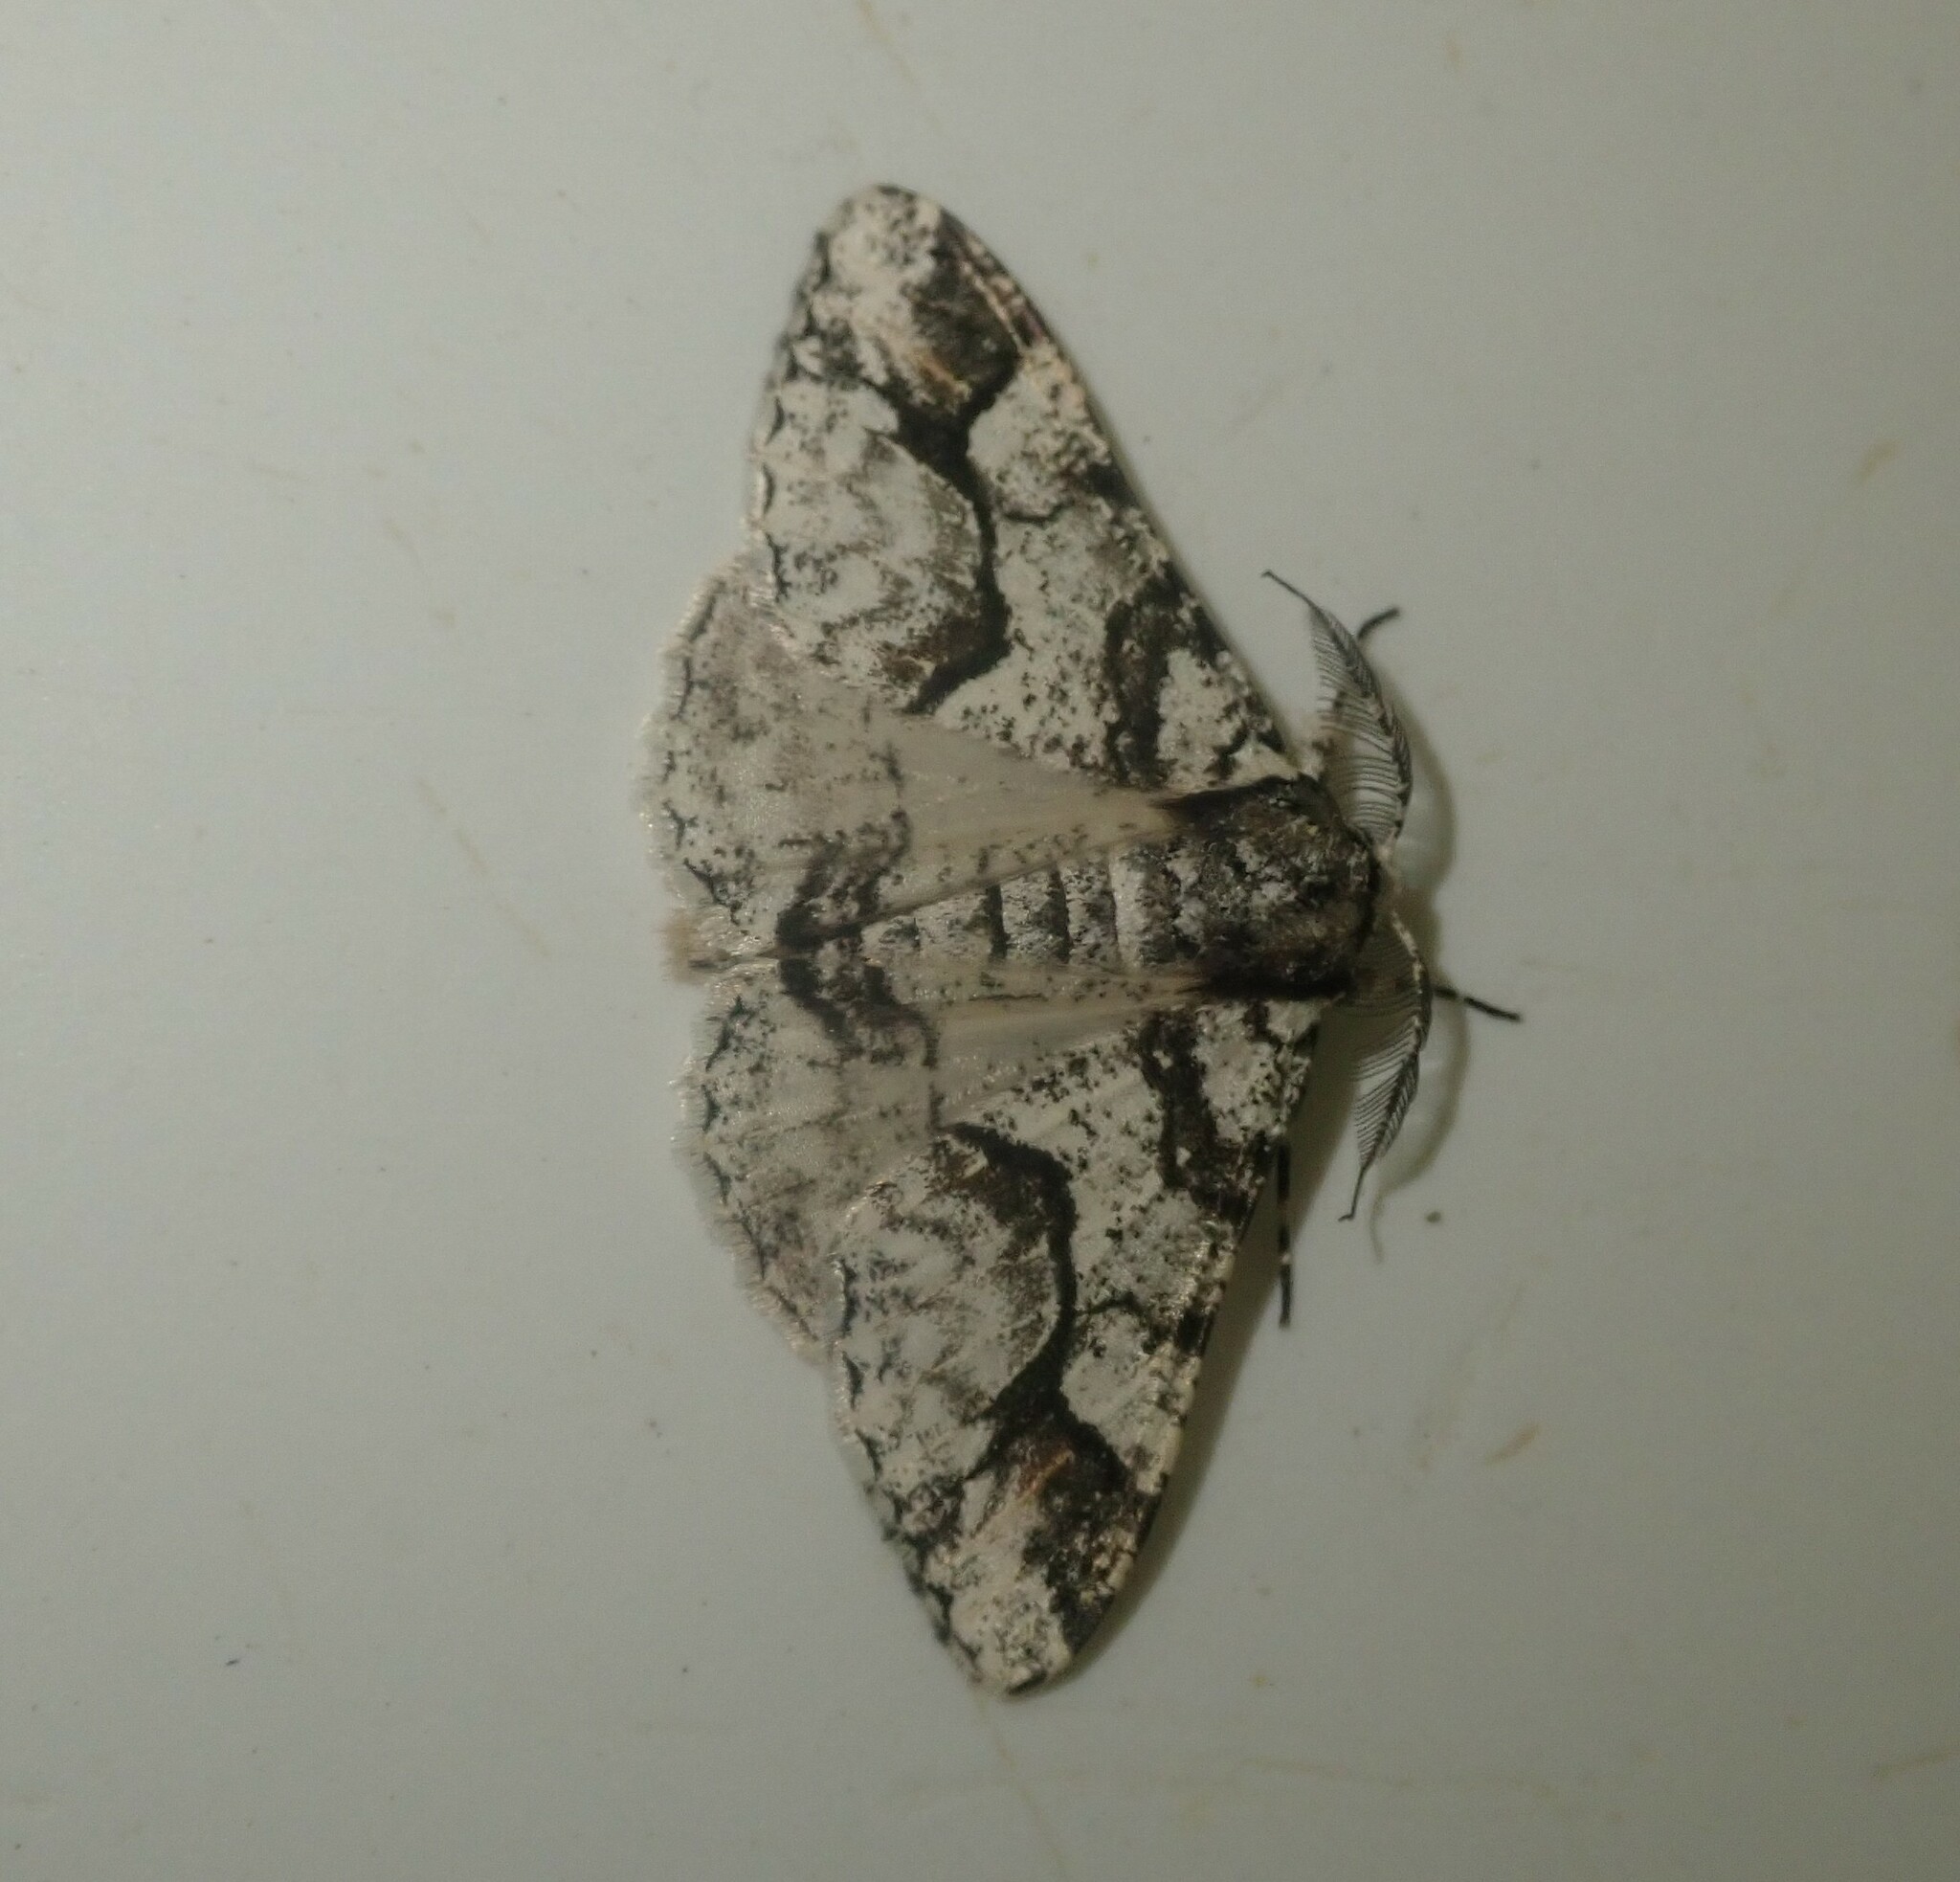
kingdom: Animalia
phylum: Arthropoda
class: Insecta
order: Lepidoptera
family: Geometridae
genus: Cerurographa
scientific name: Cerurographa bistonica
